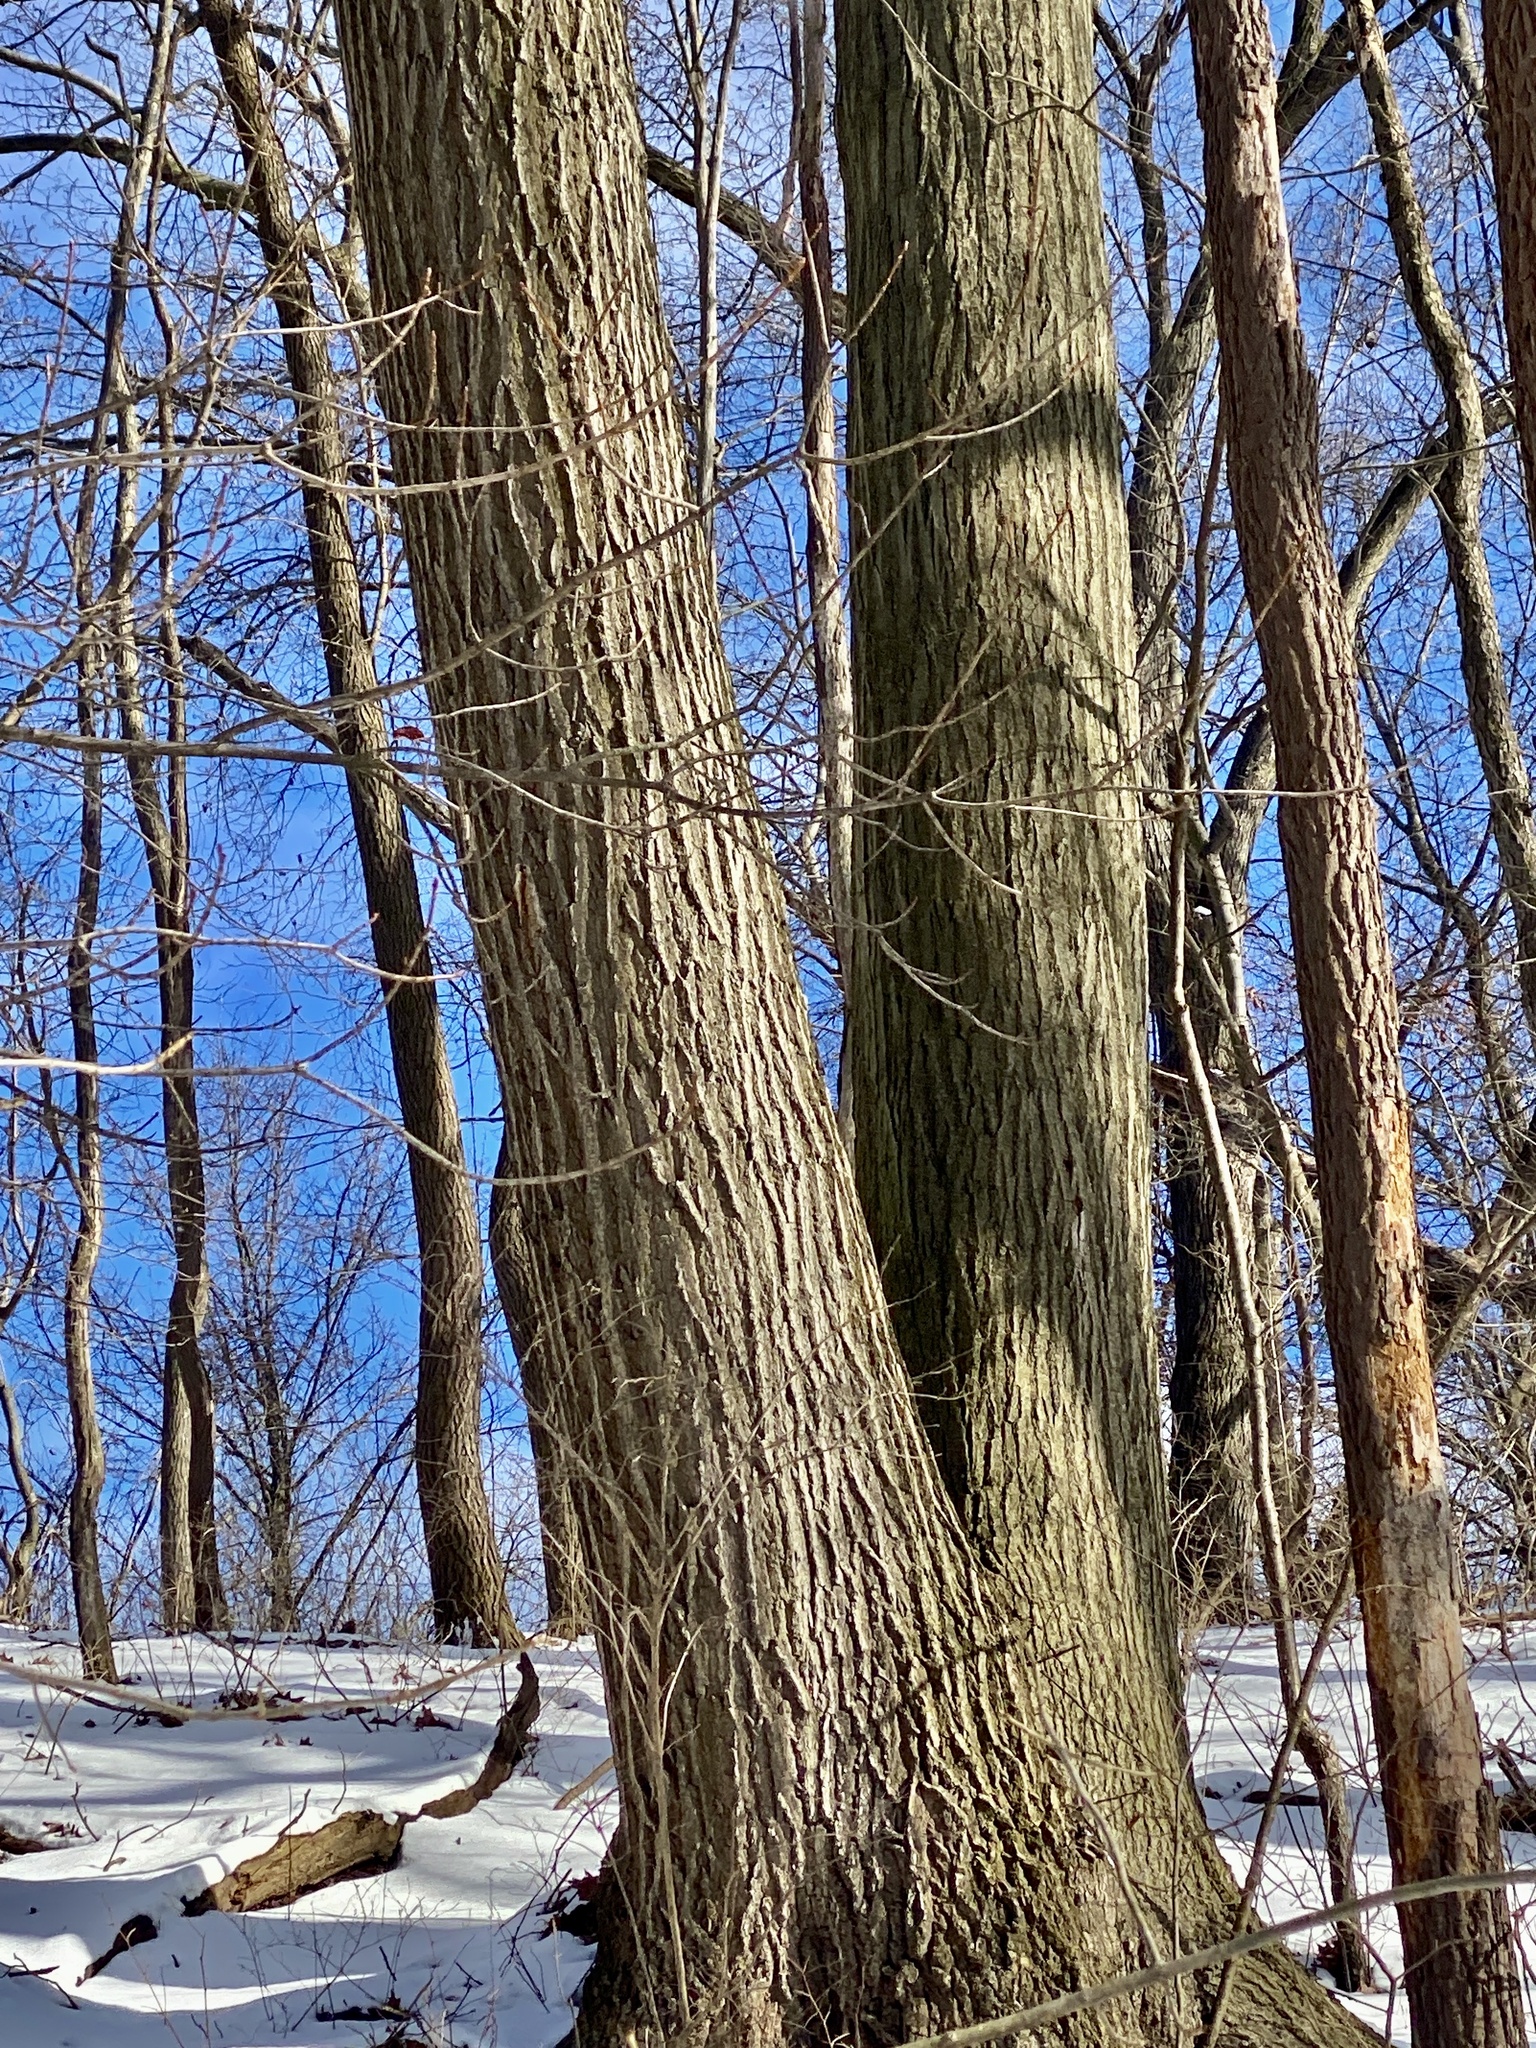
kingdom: Plantae
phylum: Tracheophyta
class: Magnoliopsida
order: Fagales
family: Fagaceae
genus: Quercus
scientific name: Quercus rubra
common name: Red oak
